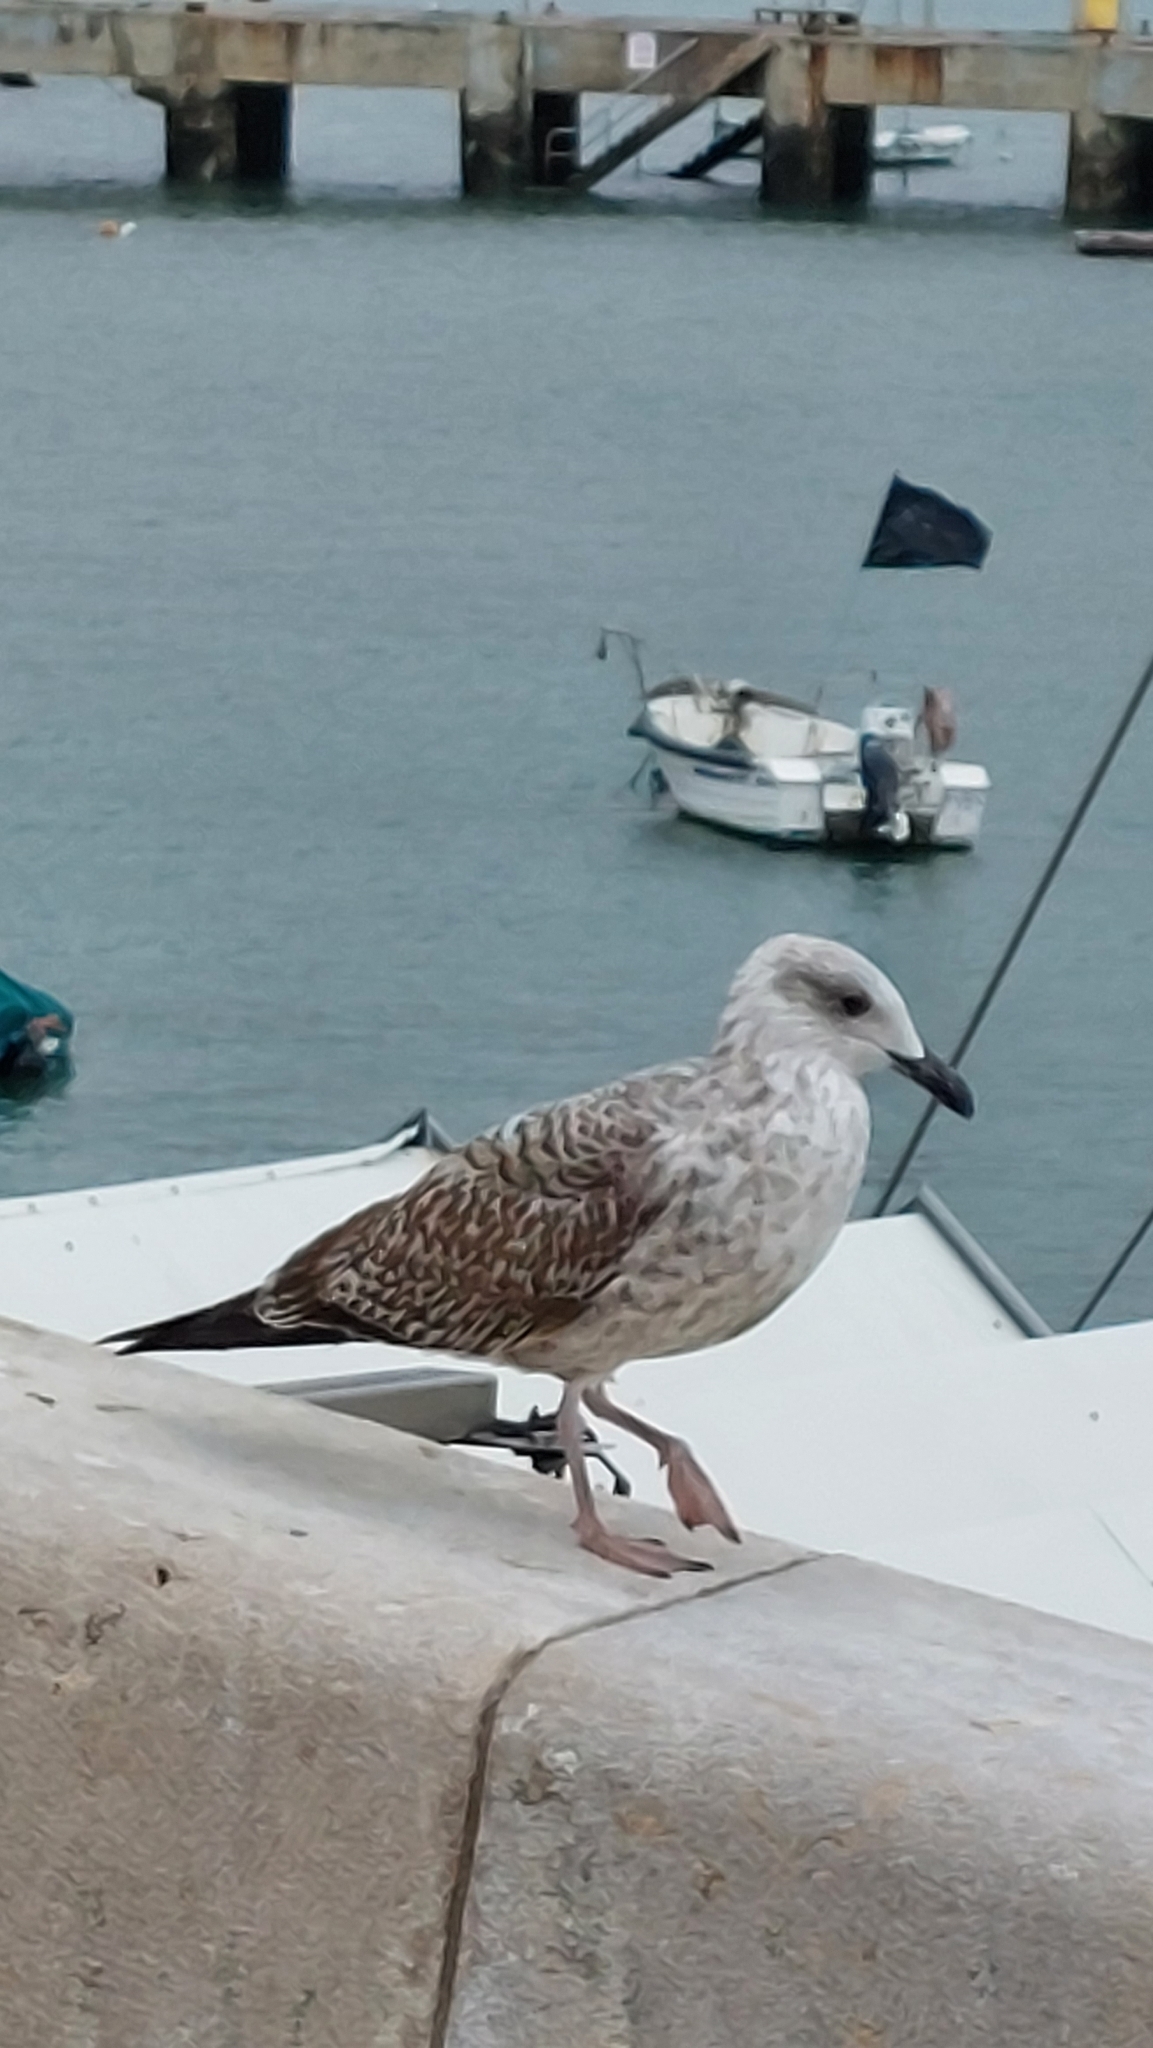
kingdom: Animalia
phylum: Chordata
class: Aves
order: Charadriiformes
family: Laridae
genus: Larus
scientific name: Larus michahellis
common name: Yellow-legged gull
